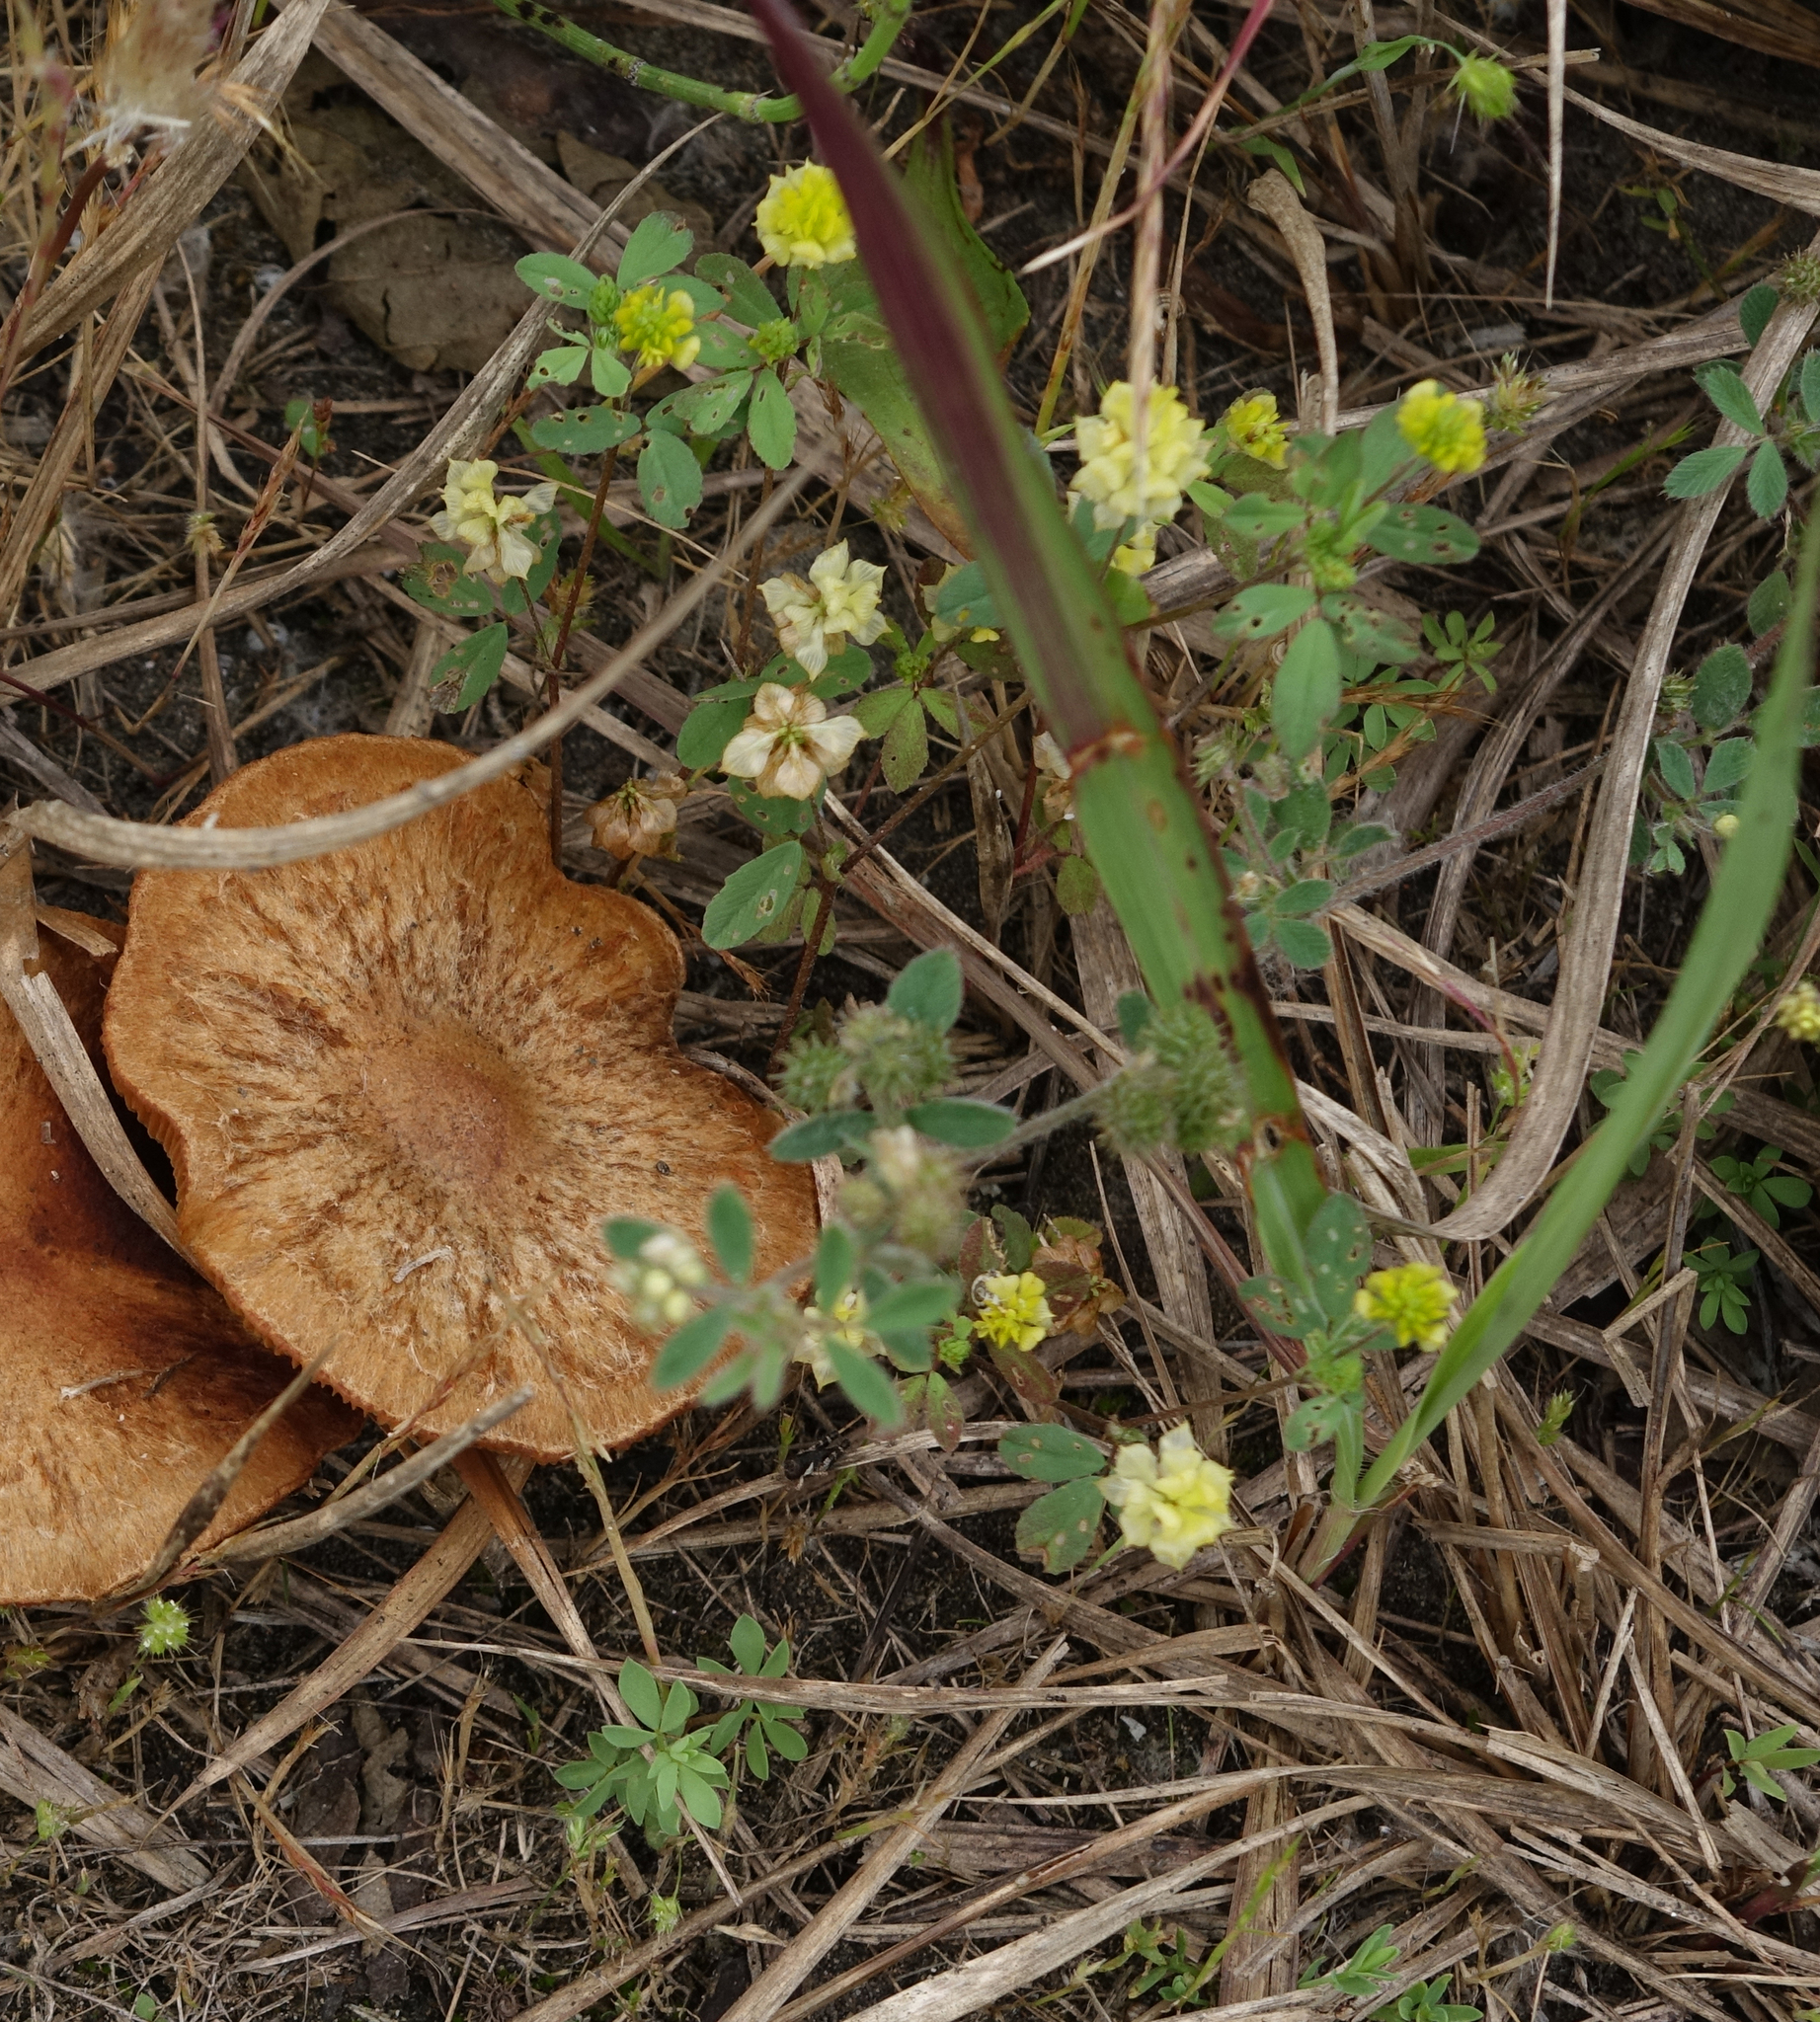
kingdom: Plantae
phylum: Tracheophyta
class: Magnoliopsida
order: Fabales
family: Fabaceae
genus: Medicago
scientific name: Medicago lupulina
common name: Black medick
